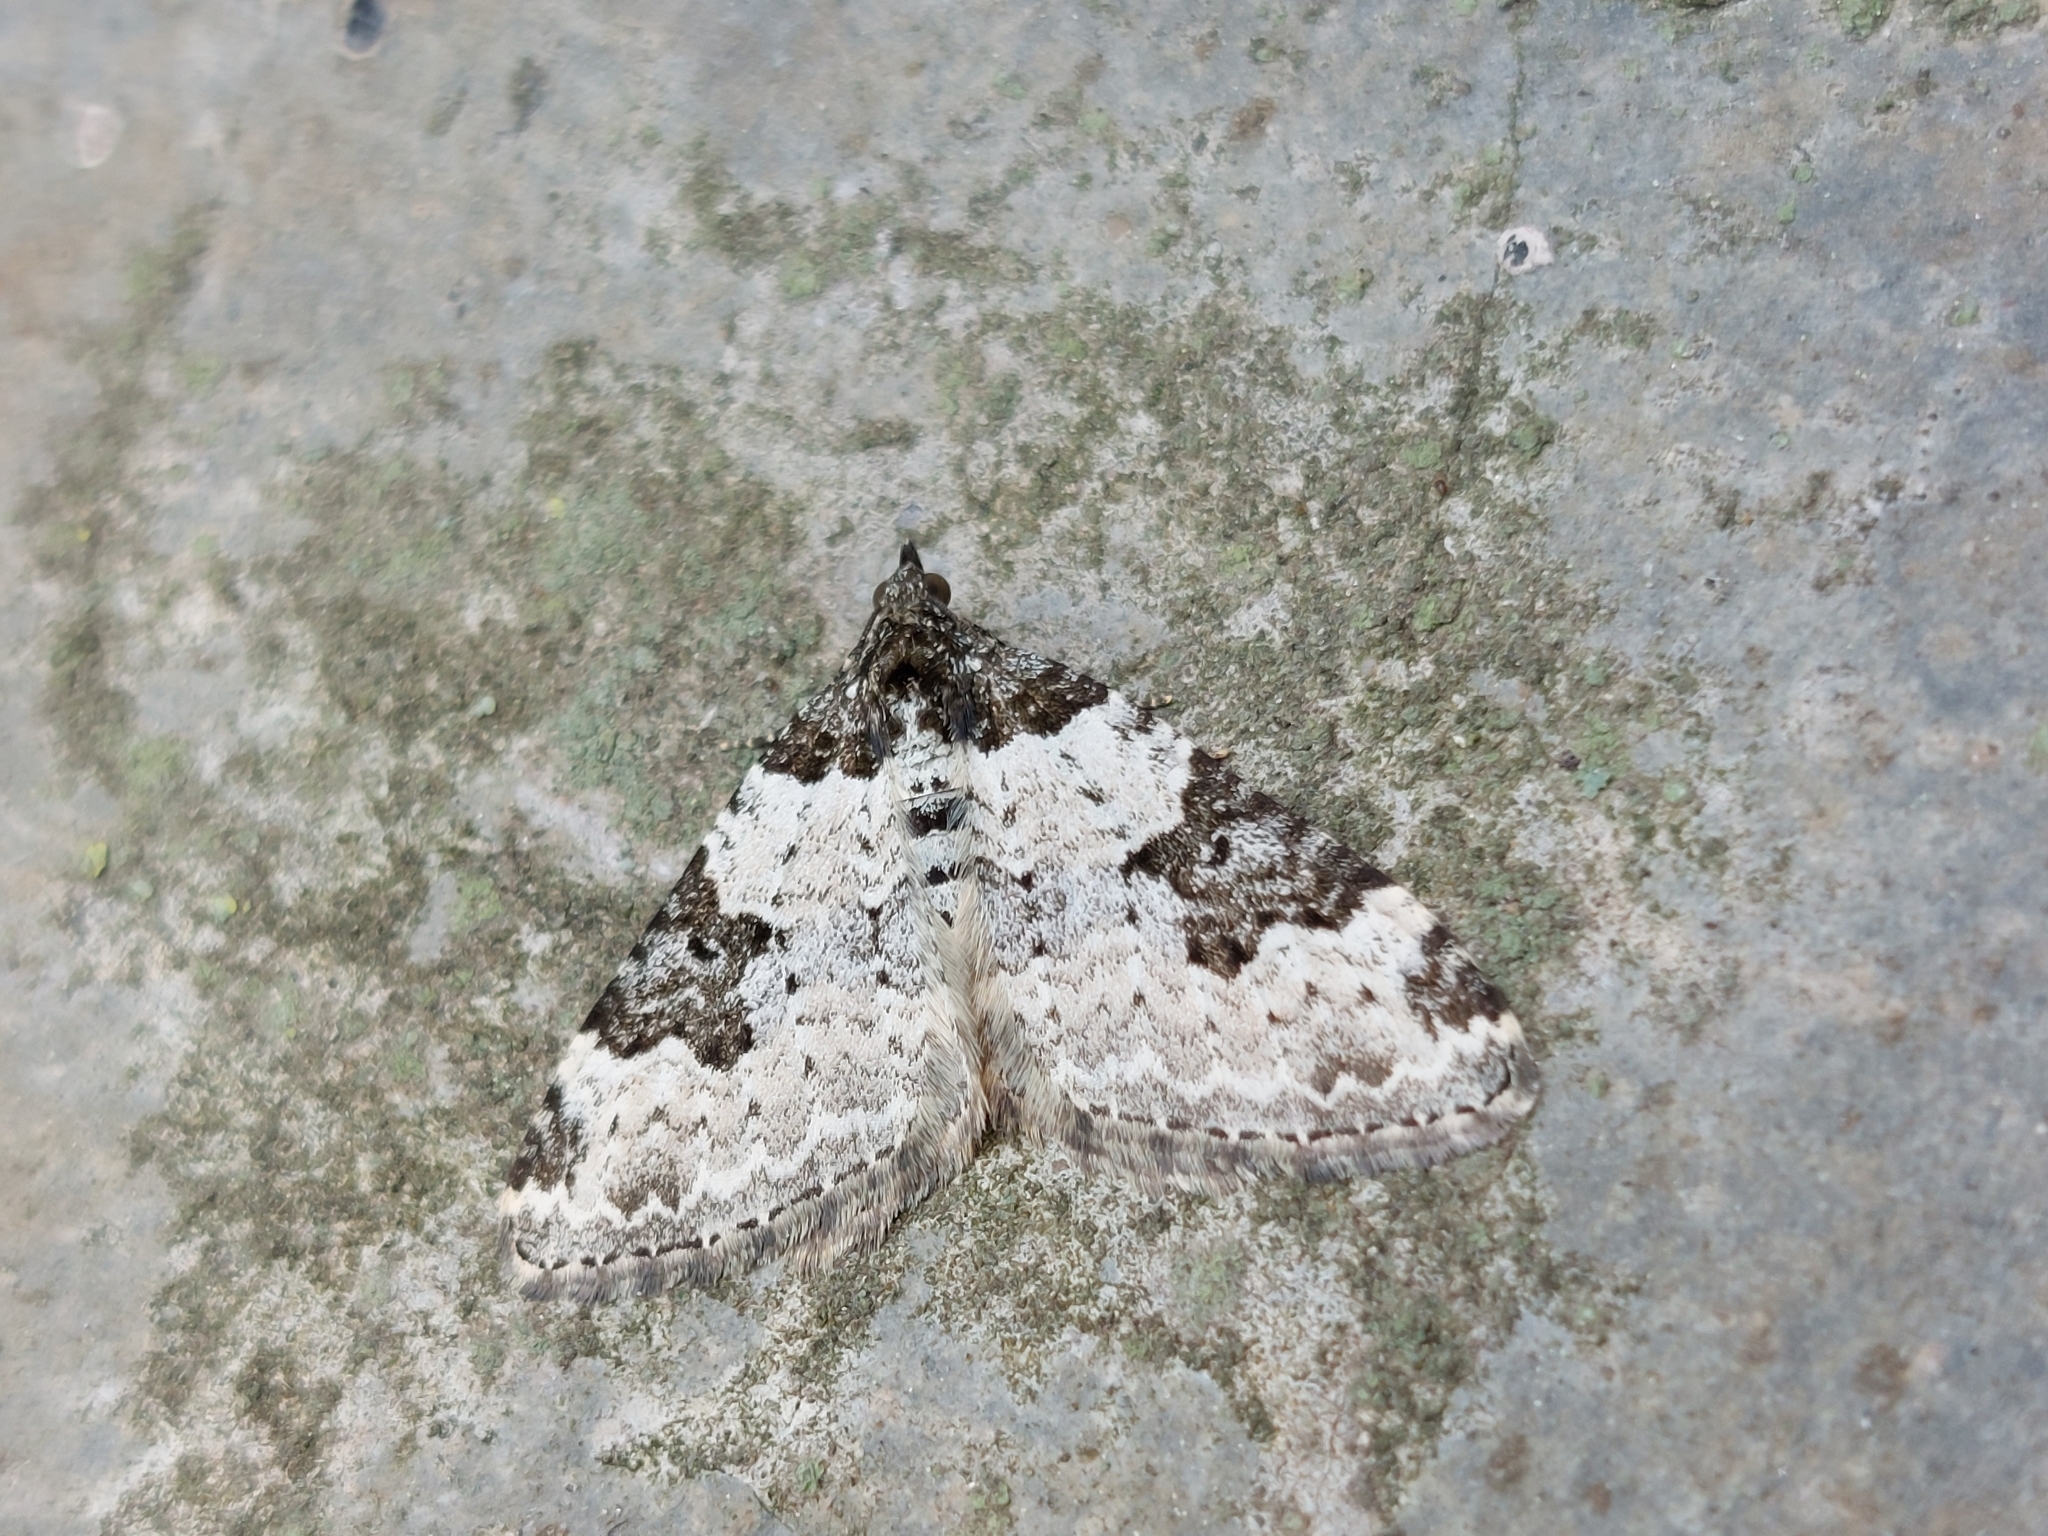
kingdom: Animalia
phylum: Arthropoda
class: Insecta
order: Lepidoptera
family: Geometridae
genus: Xanthorhoe
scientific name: Xanthorhoe fluctuata
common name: Garden carpet
